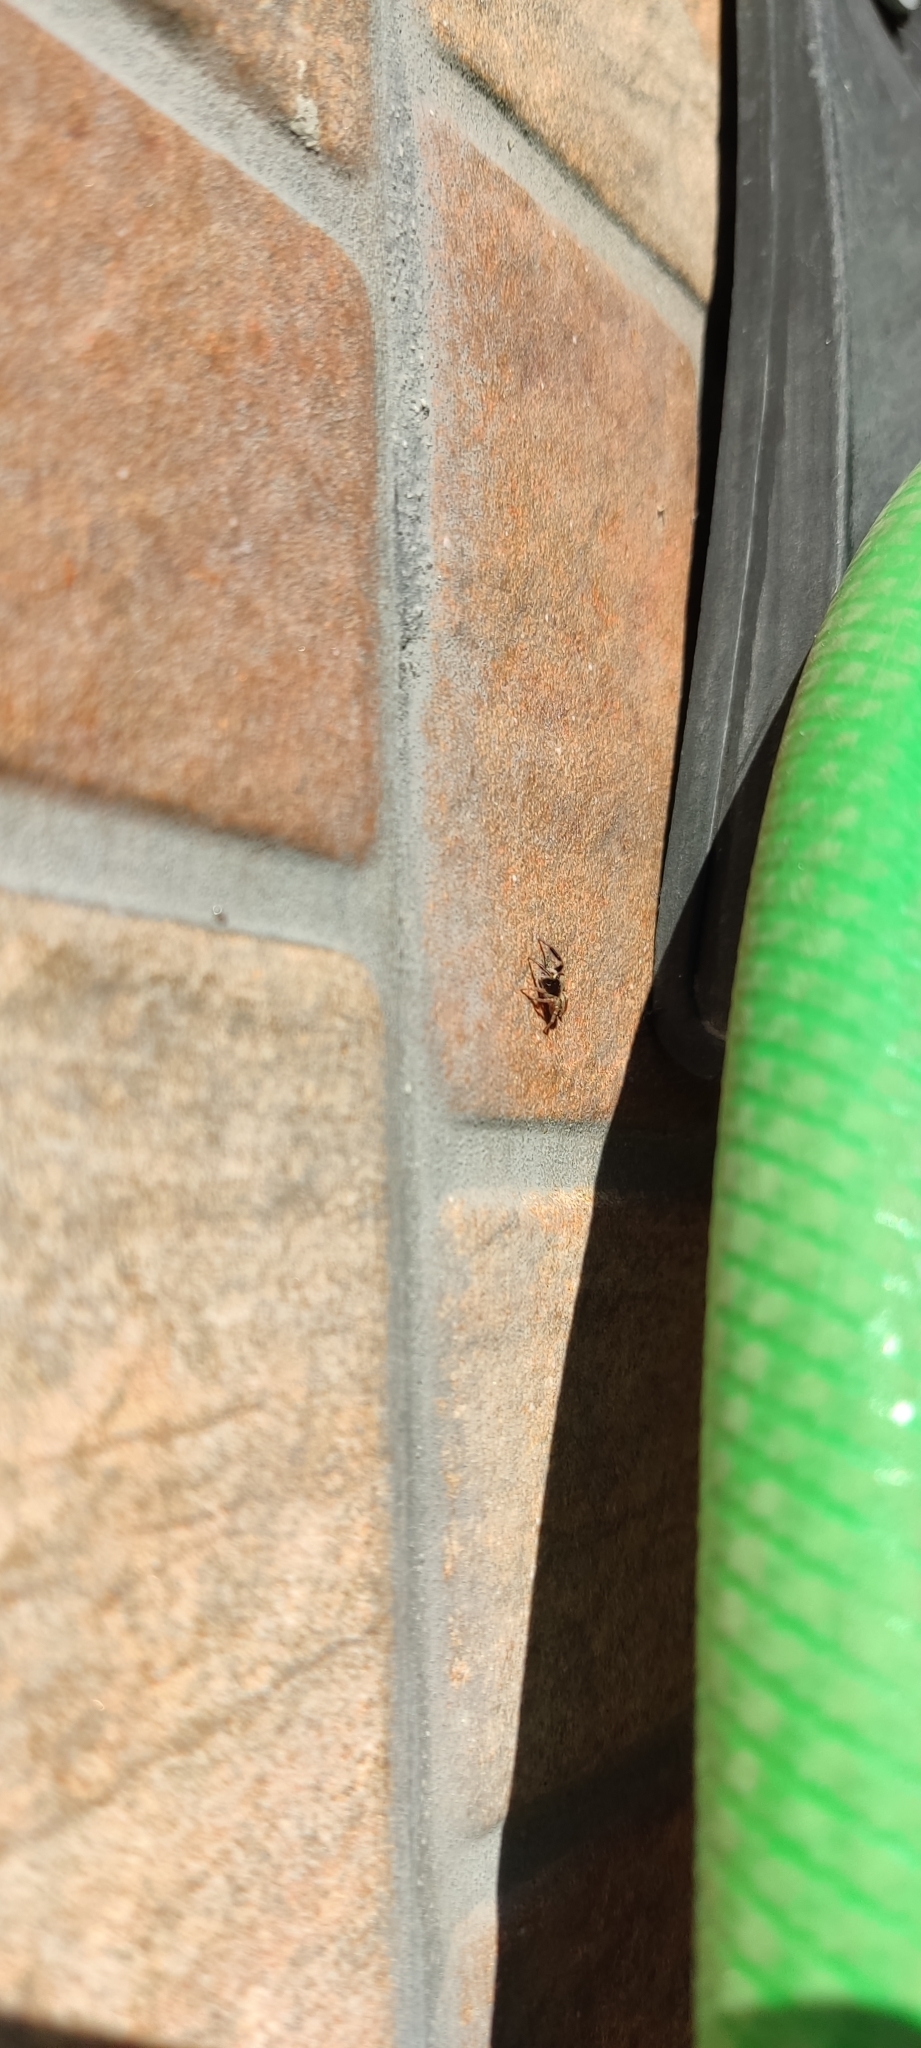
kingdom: Animalia
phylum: Arthropoda
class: Arachnida
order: Araneae
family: Salticidae
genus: Pseudeuophrys
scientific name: Pseudeuophrys lanigera
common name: Jumping spider
